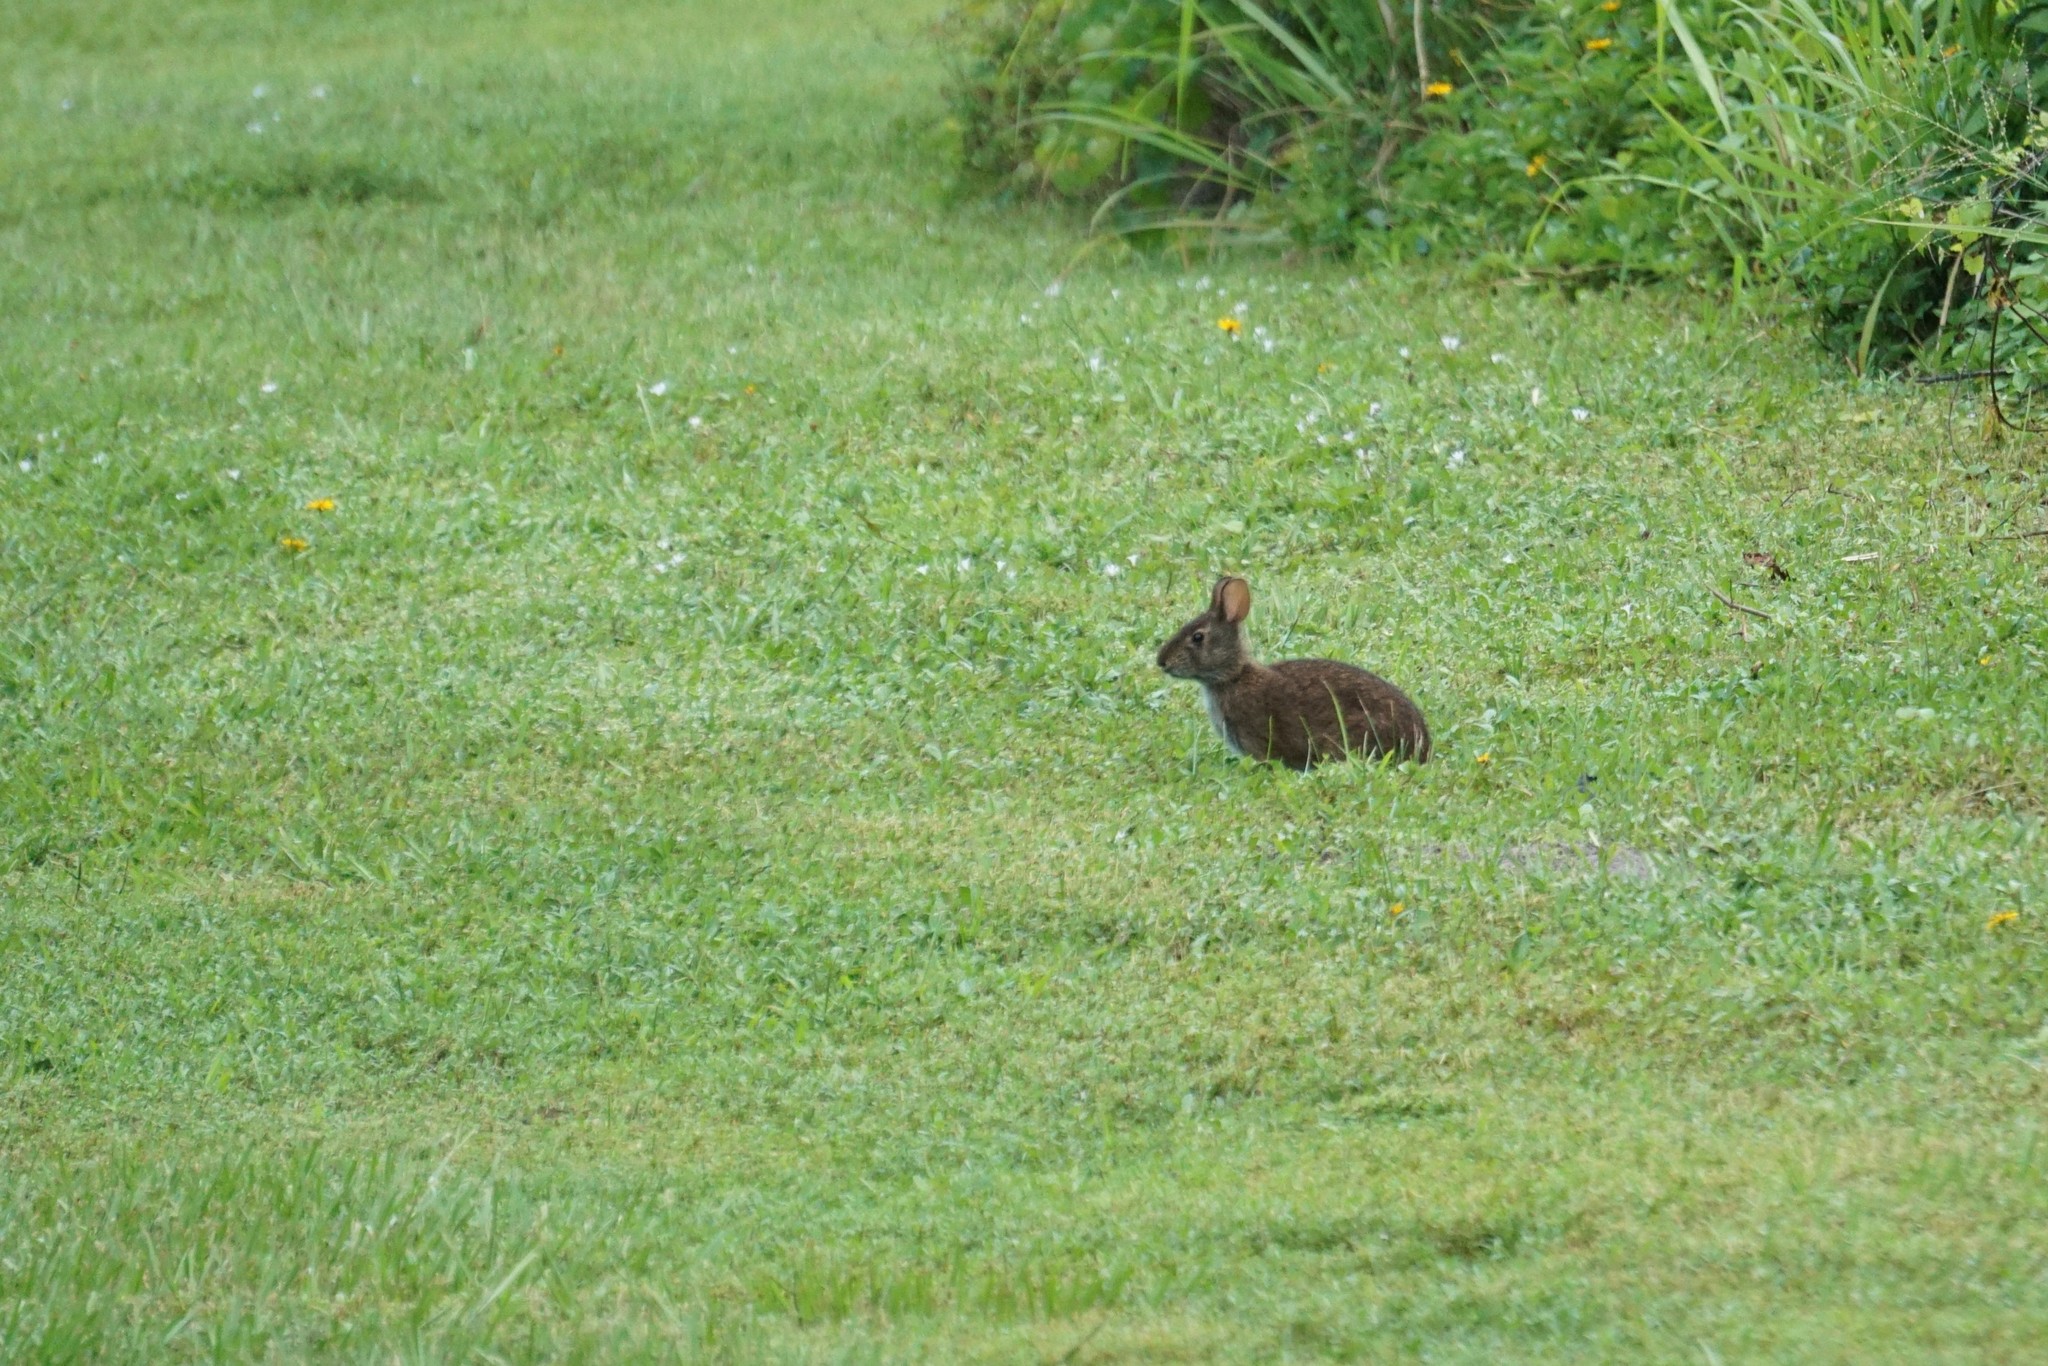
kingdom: Animalia
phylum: Chordata
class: Mammalia
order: Lagomorpha
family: Leporidae
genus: Sylvilagus
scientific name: Sylvilagus palustris
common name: Marsh rabbit
